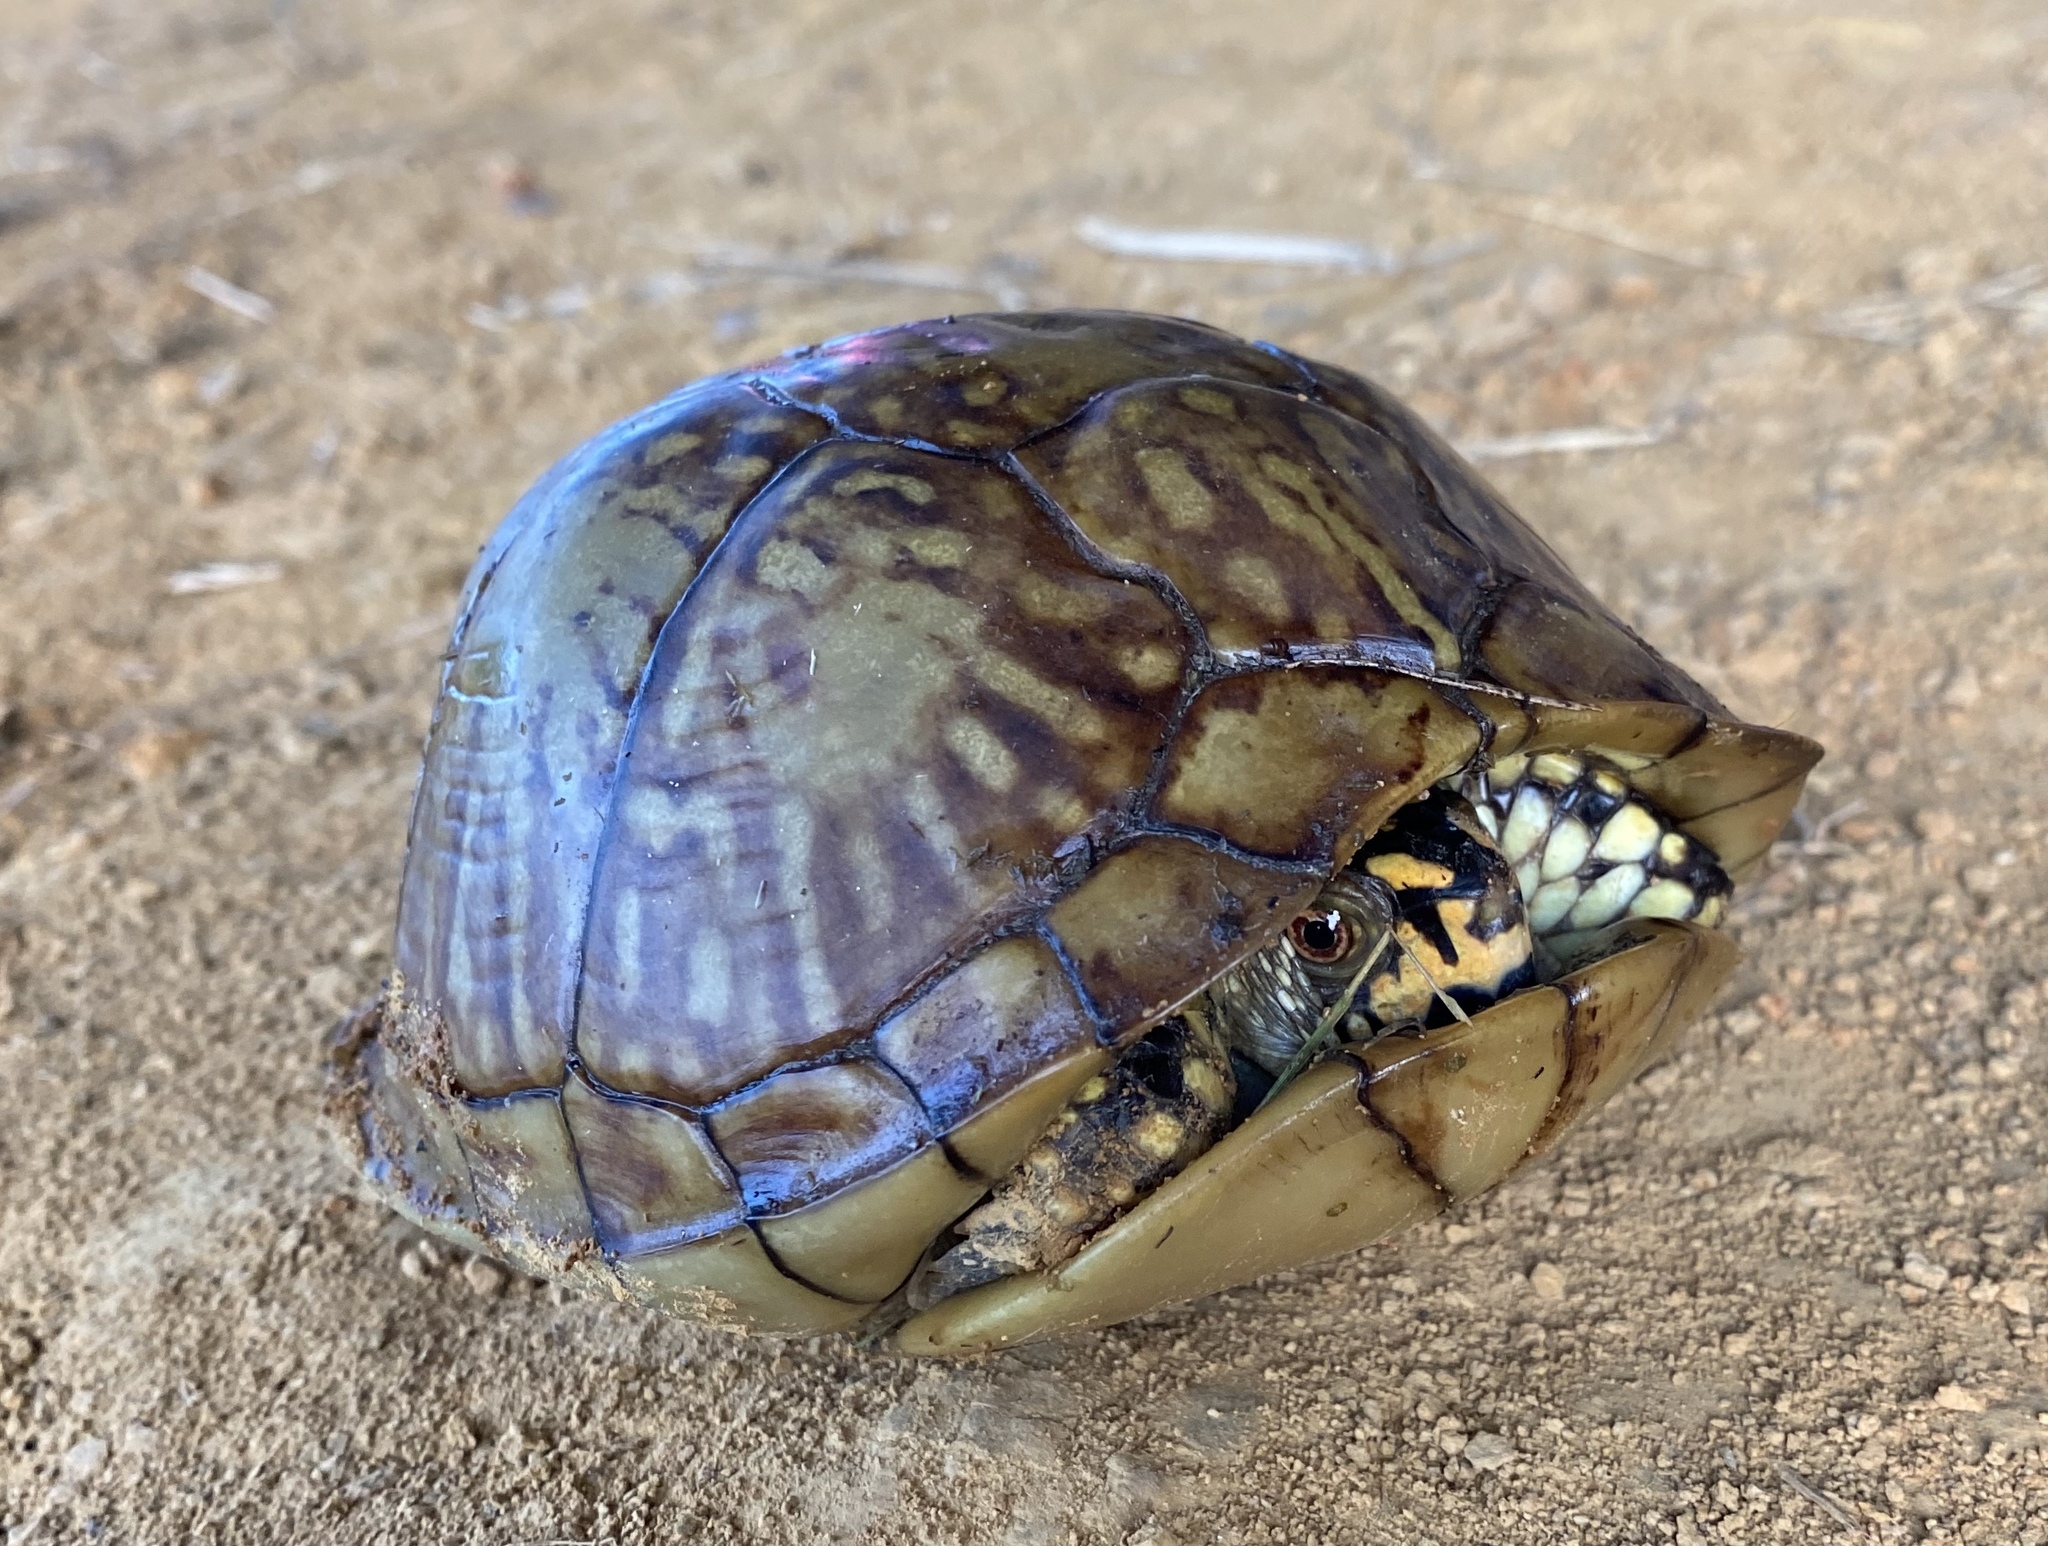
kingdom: Animalia
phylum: Chordata
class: Testudines
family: Emydidae
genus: Terrapene
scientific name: Terrapene carolina
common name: Common box turtle
